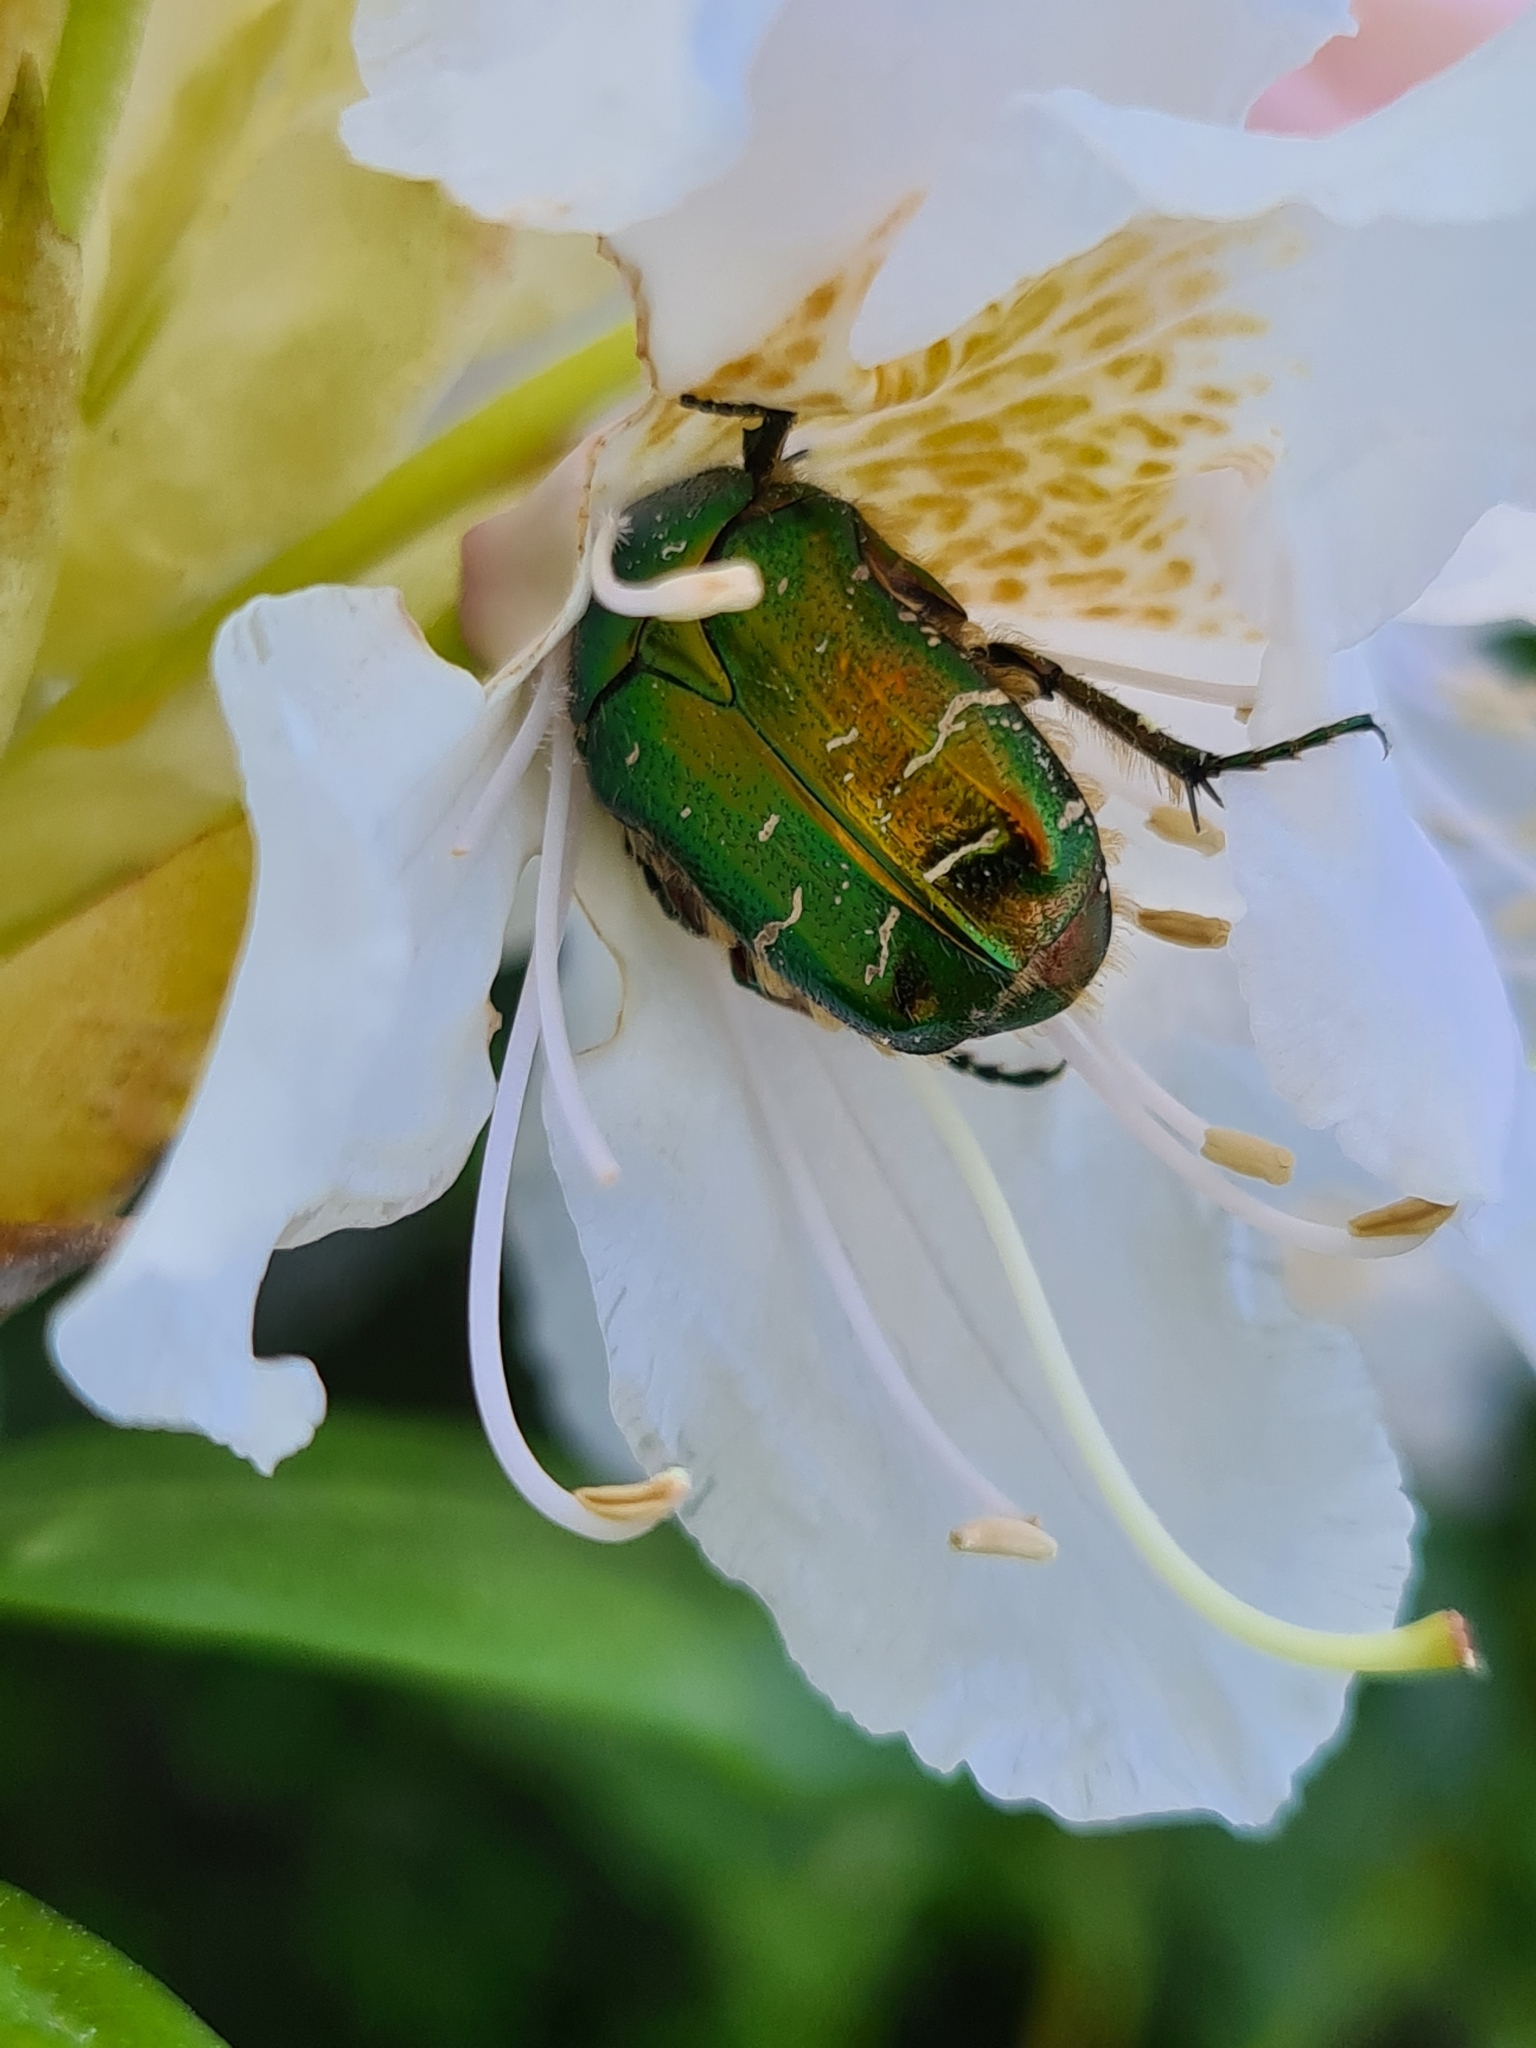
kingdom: Animalia
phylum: Arthropoda
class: Insecta
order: Coleoptera
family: Scarabaeidae
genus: Cetonia
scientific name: Cetonia aurata
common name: Rose chafer
